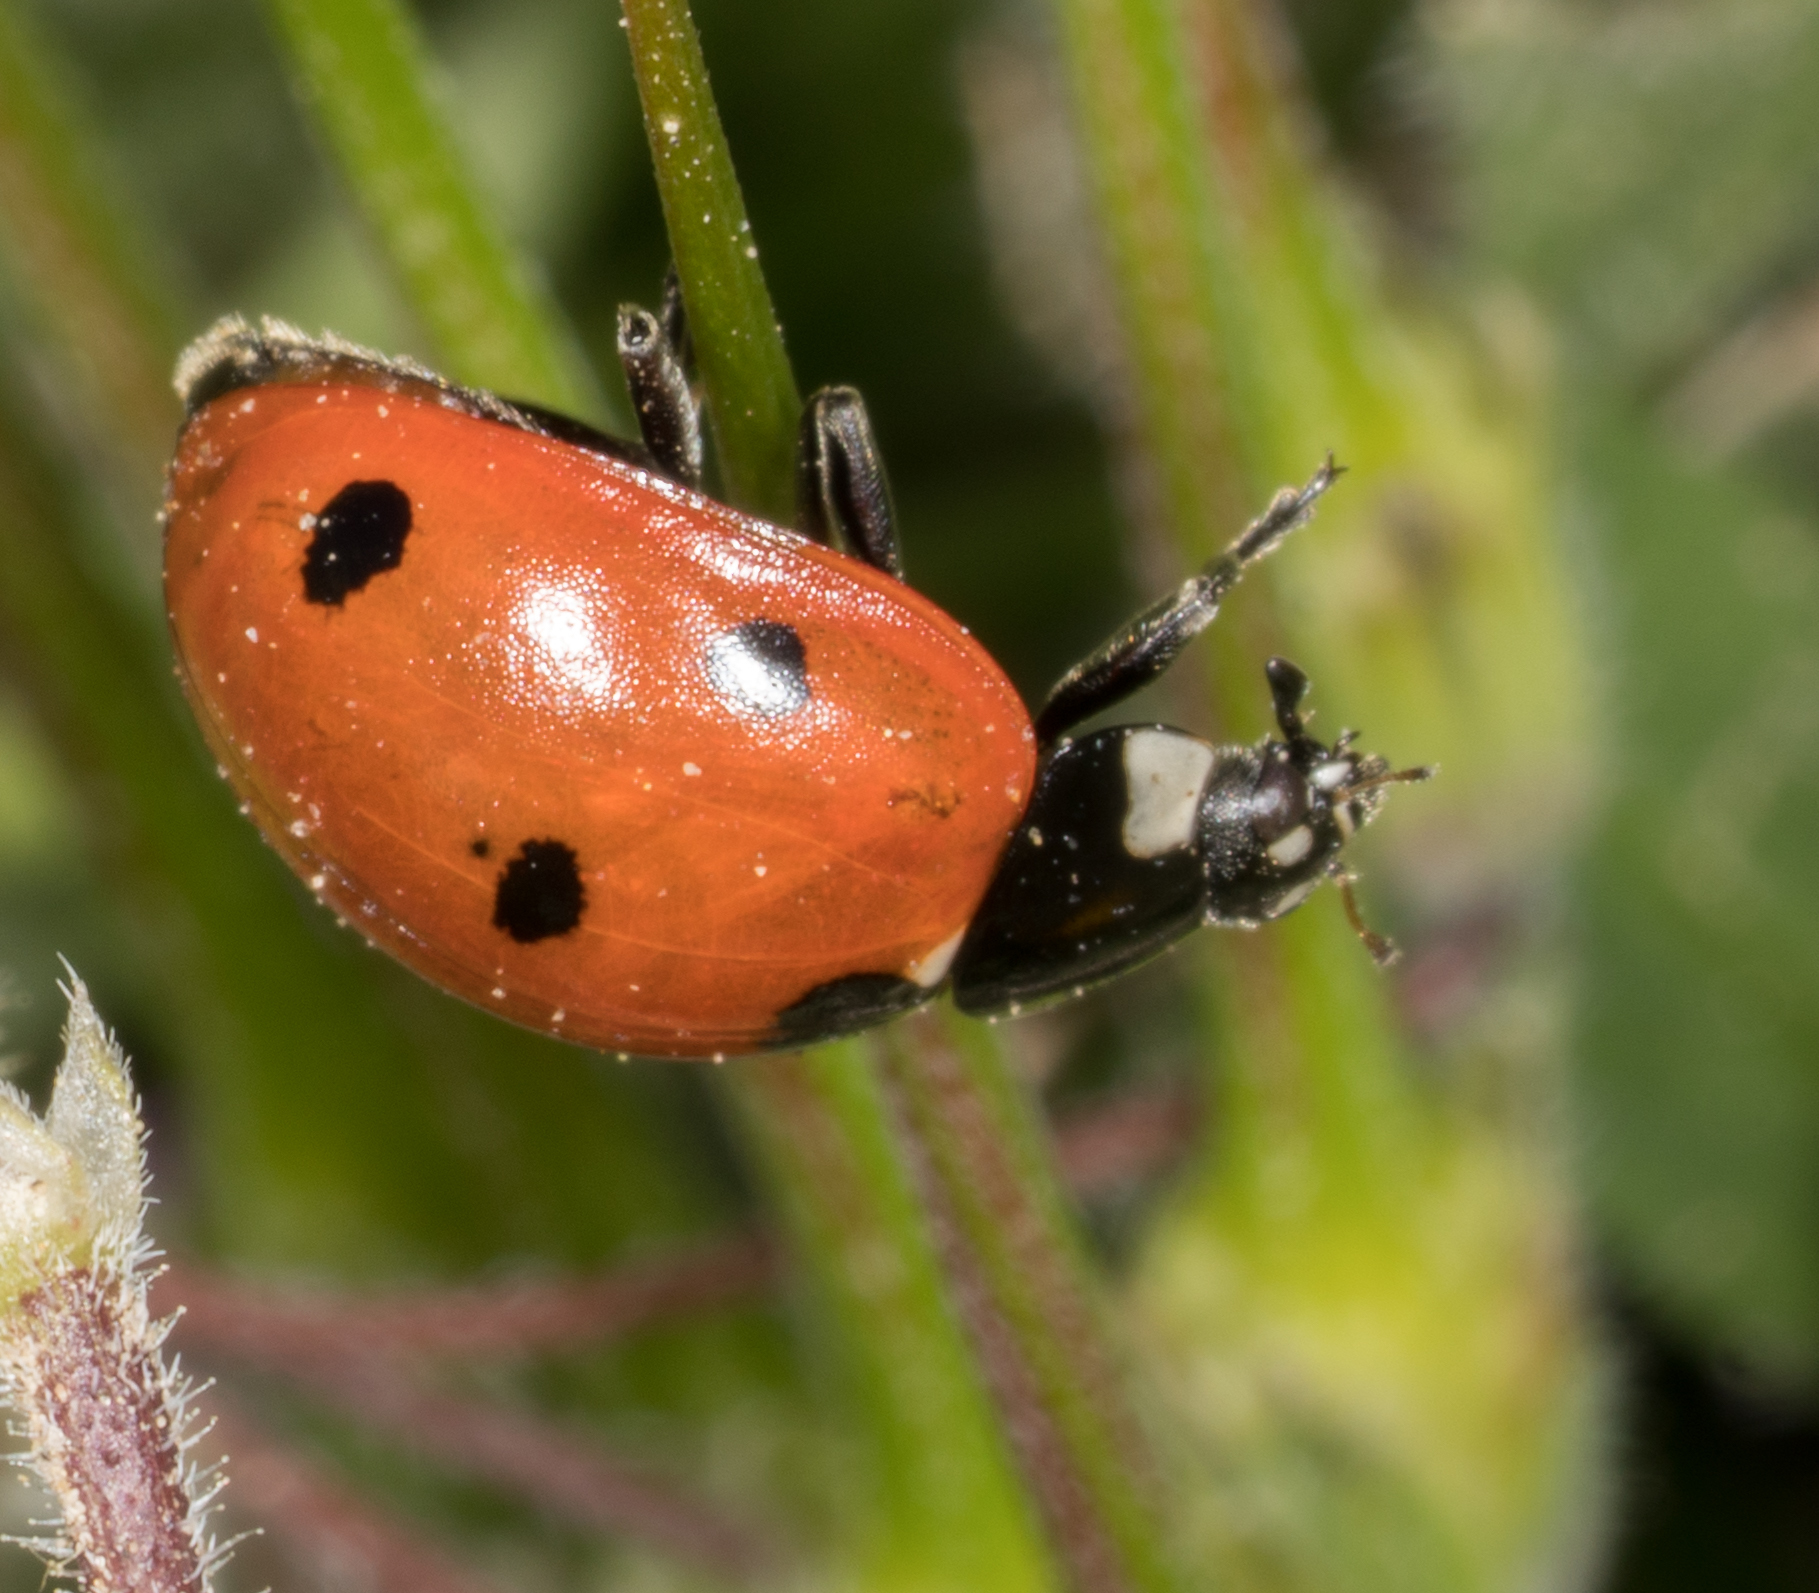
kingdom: Animalia
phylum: Arthropoda
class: Insecta
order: Coleoptera
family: Coccinellidae
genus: Coccinella
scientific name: Coccinella septempunctata
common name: Sevenspotted lady beetle
